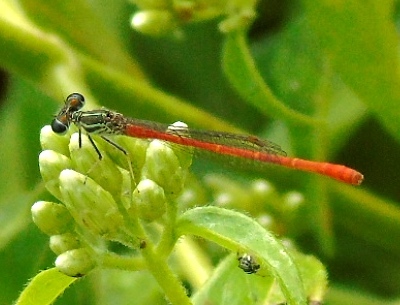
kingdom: Animalia
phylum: Arthropoda
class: Insecta
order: Odonata
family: Coenagrionidae
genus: Telebasis
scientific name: Telebasis filiola
